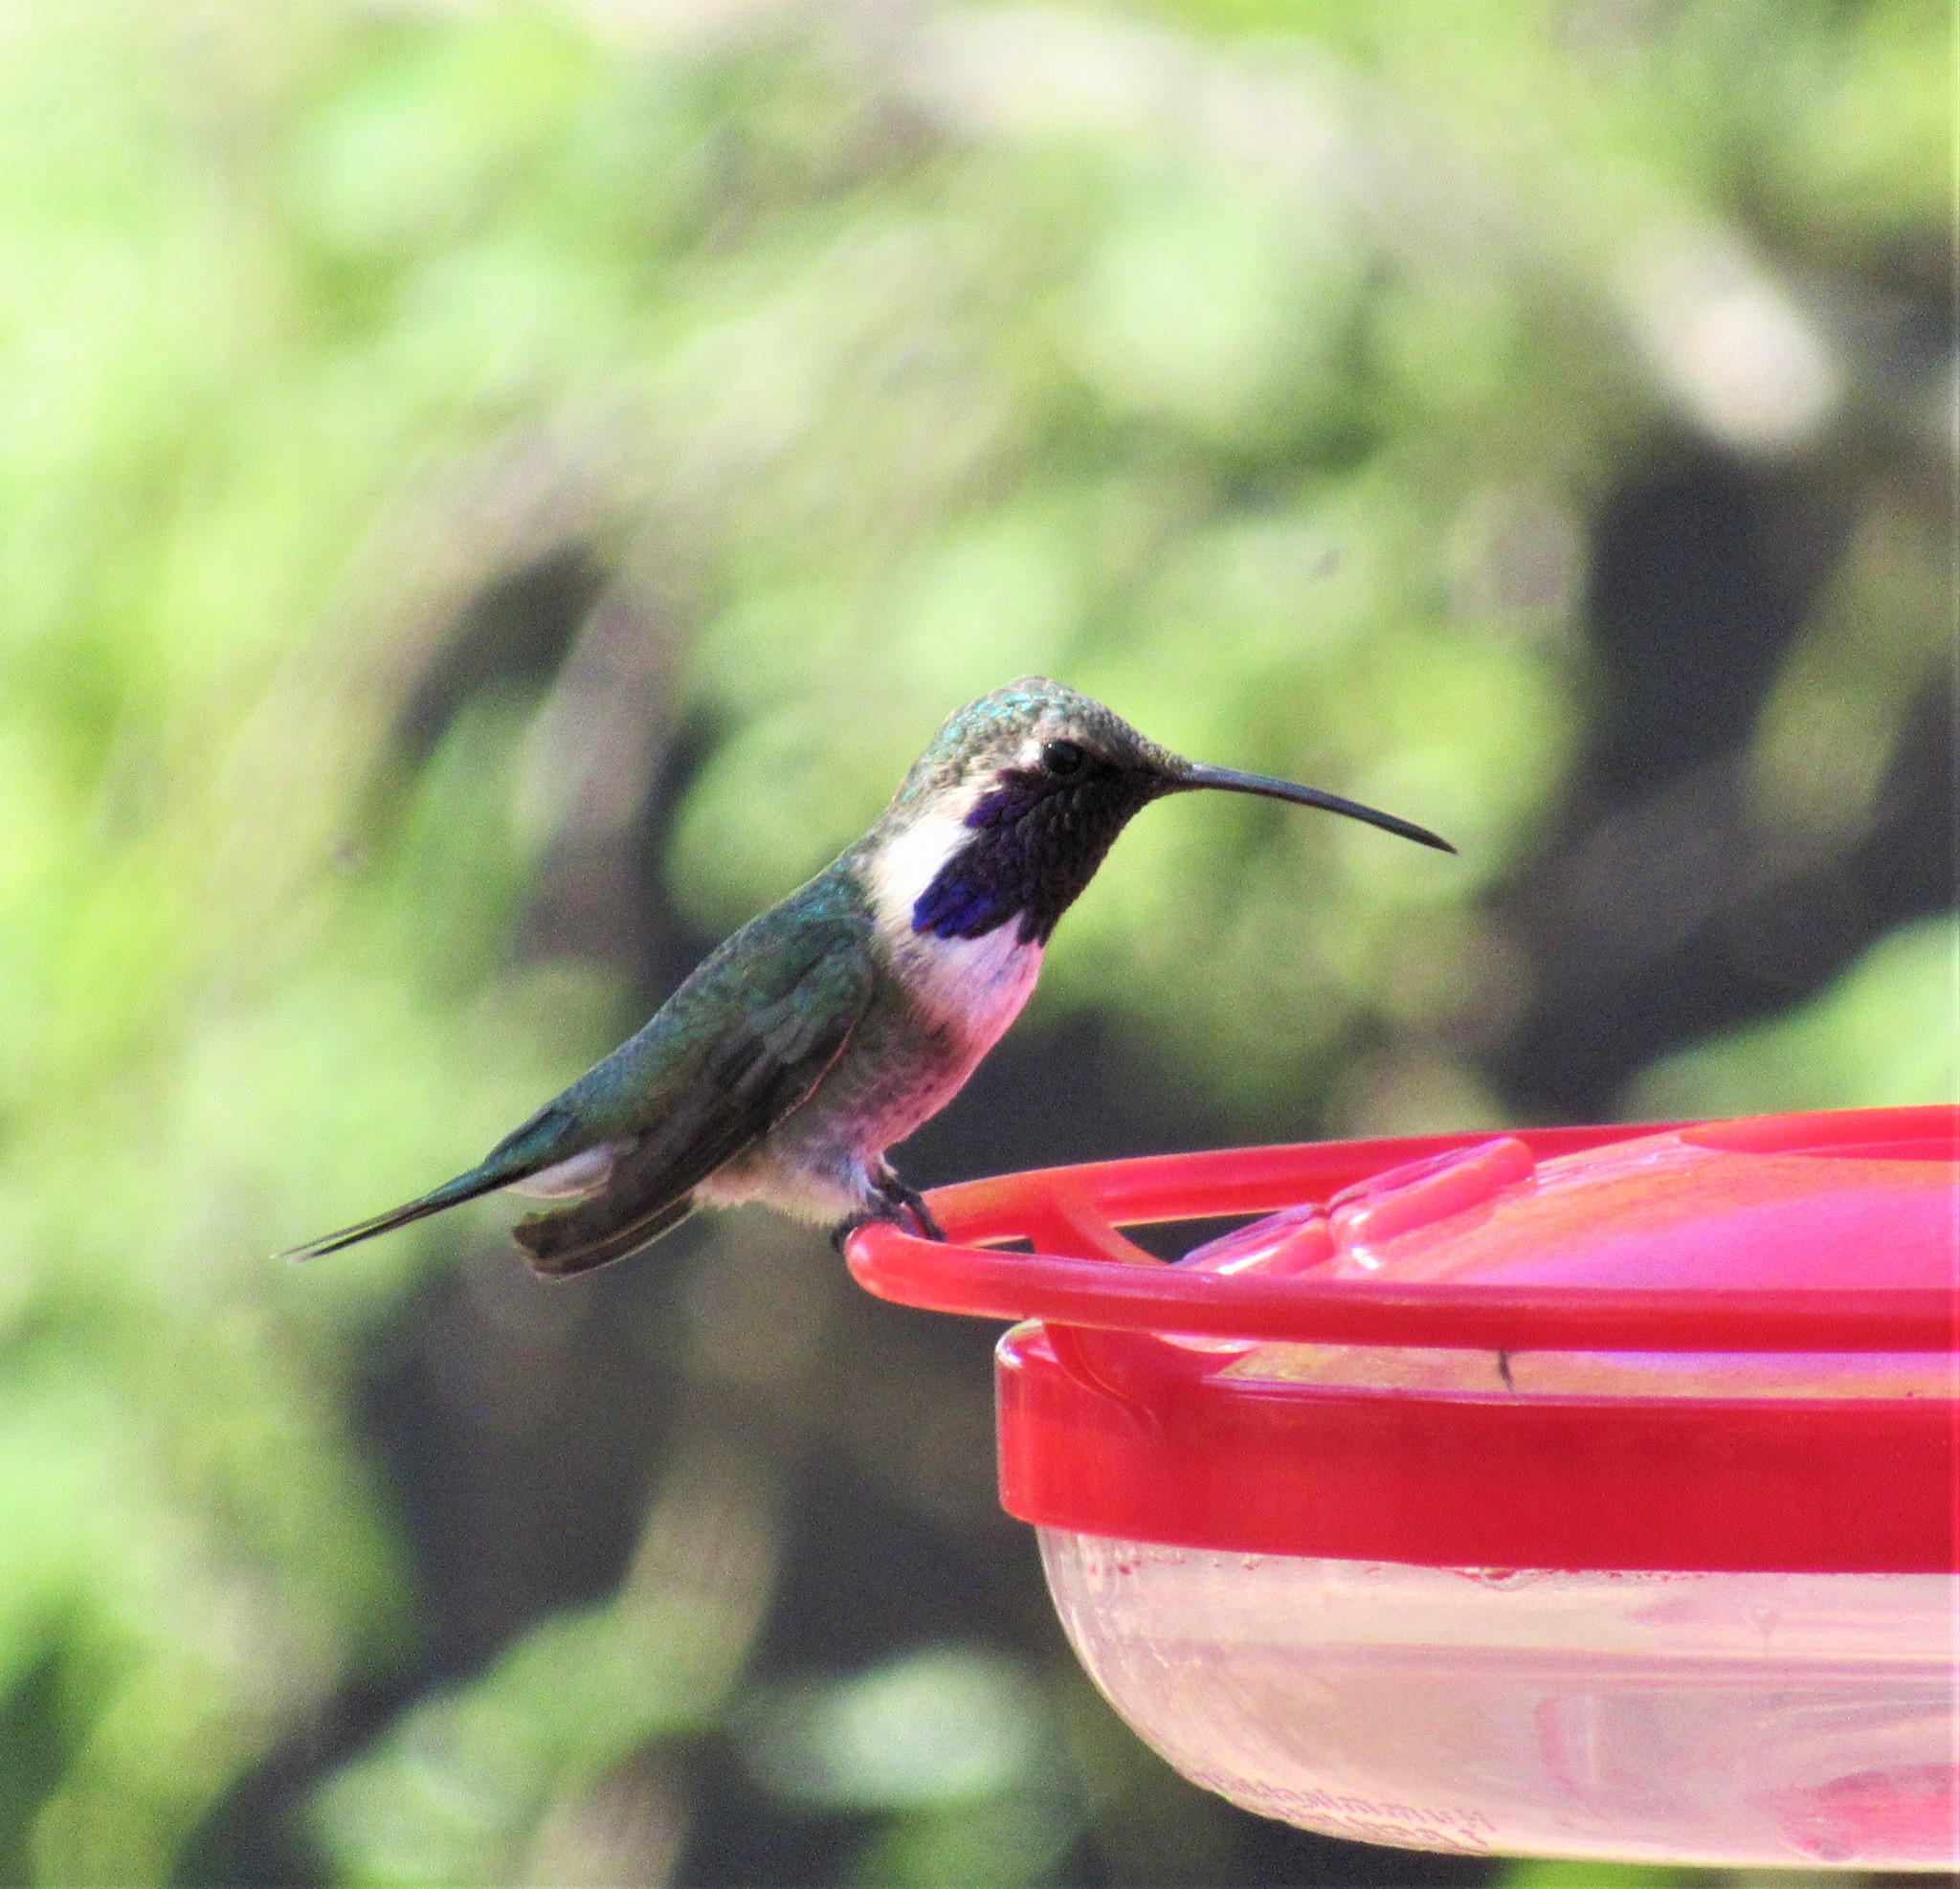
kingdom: Animalia
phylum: Chordata
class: Aves
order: Apodiformes
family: Trochilidae
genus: Calothorax
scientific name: Calothorax lucifer
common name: Lucifer sheartail
